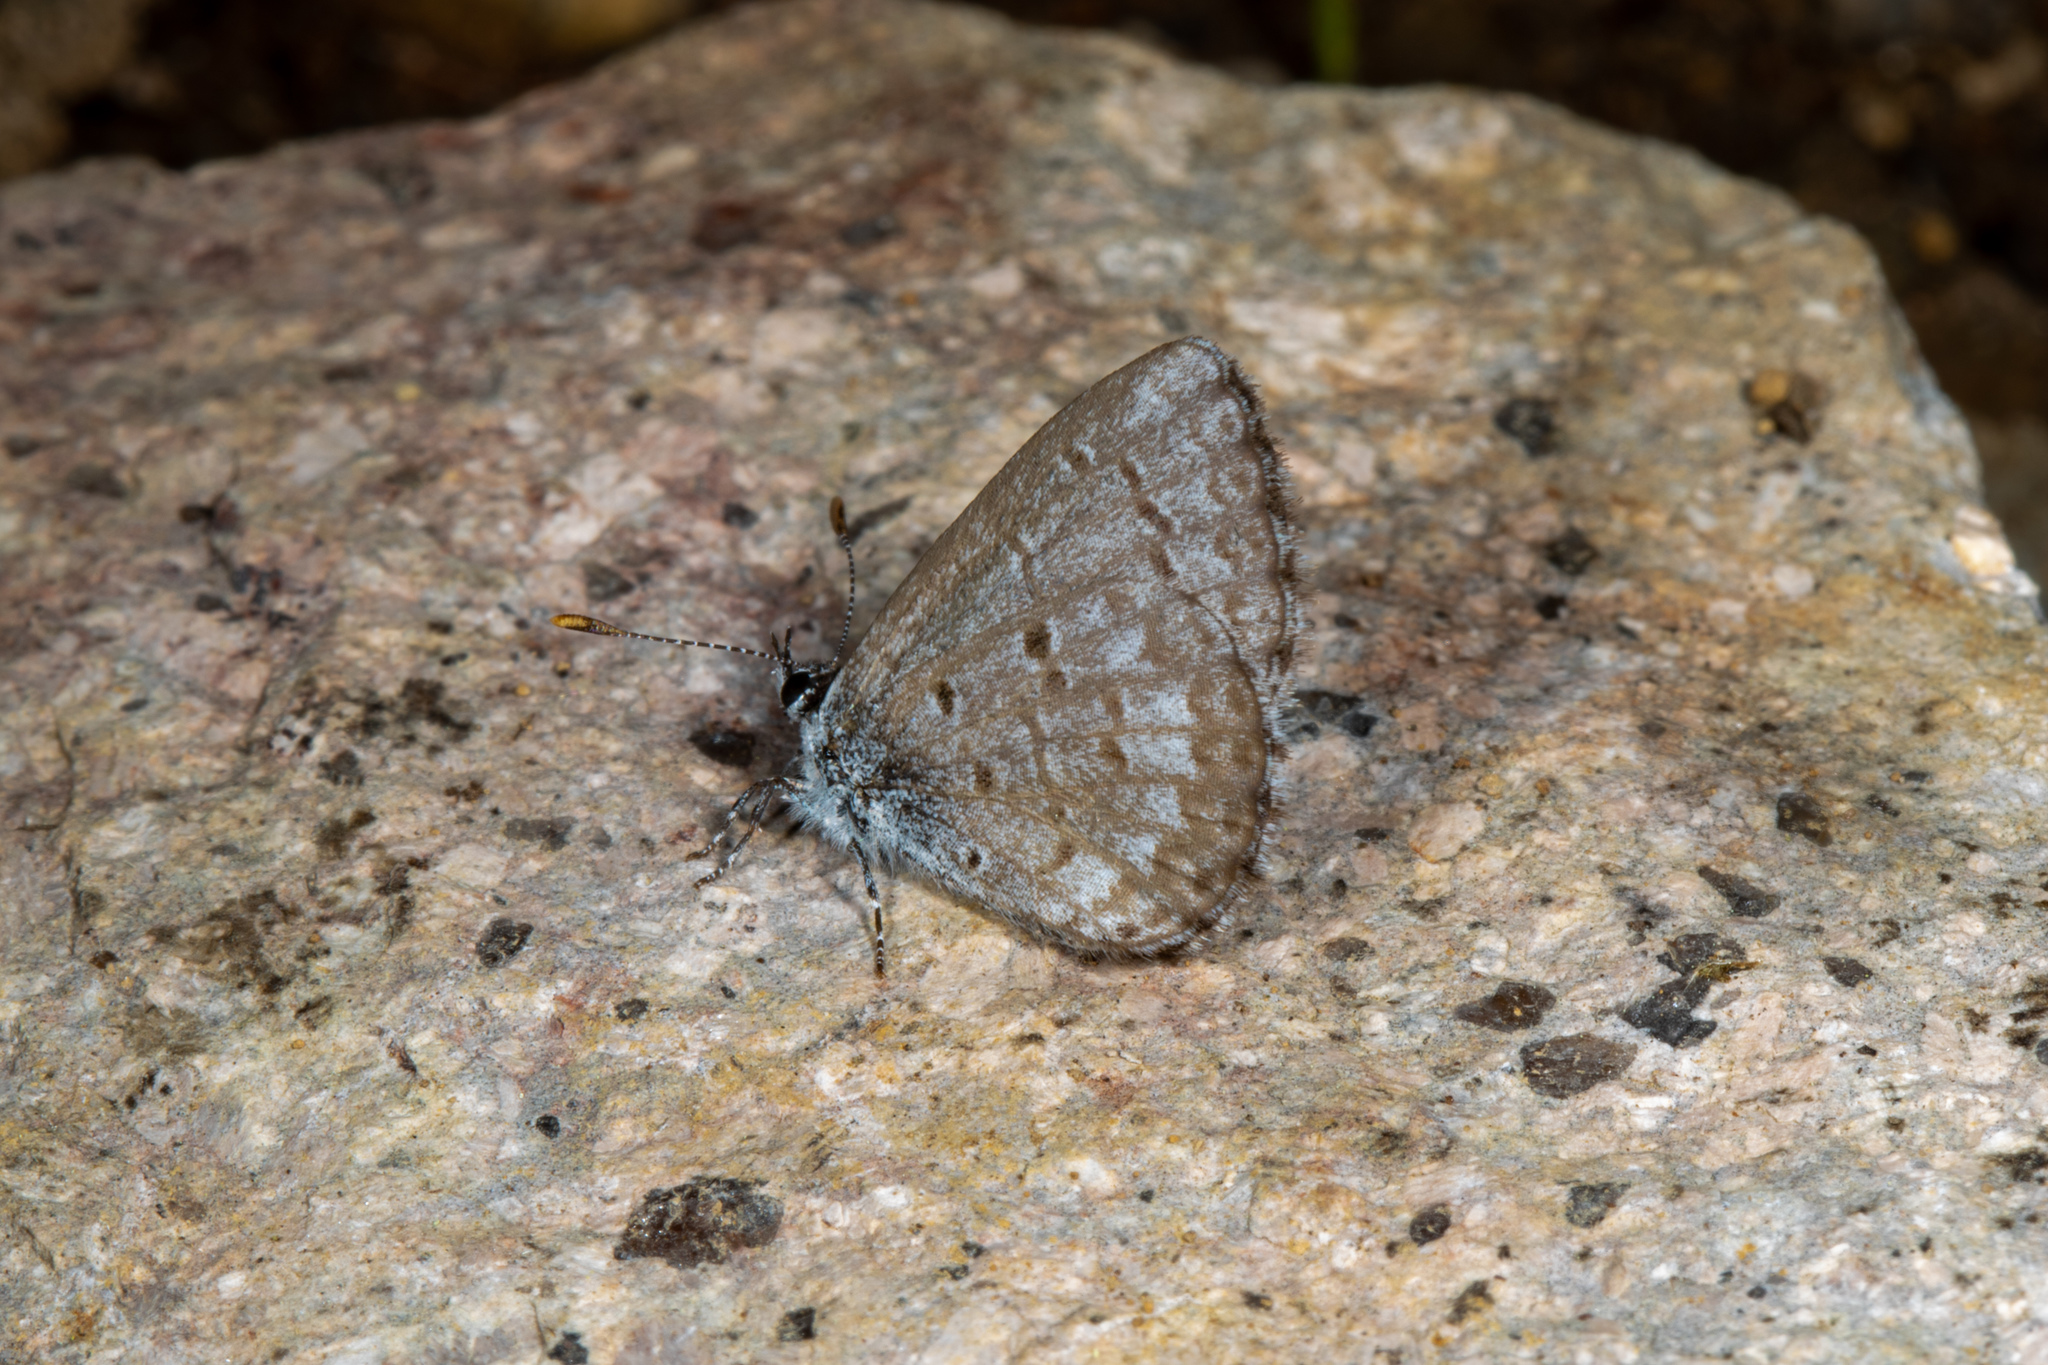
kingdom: Animalia
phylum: Arthropoda
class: Insecta
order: Lepidoptera
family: Lycaenidae
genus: Celastrina
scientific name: Celastrina lucia
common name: Lucia azure
